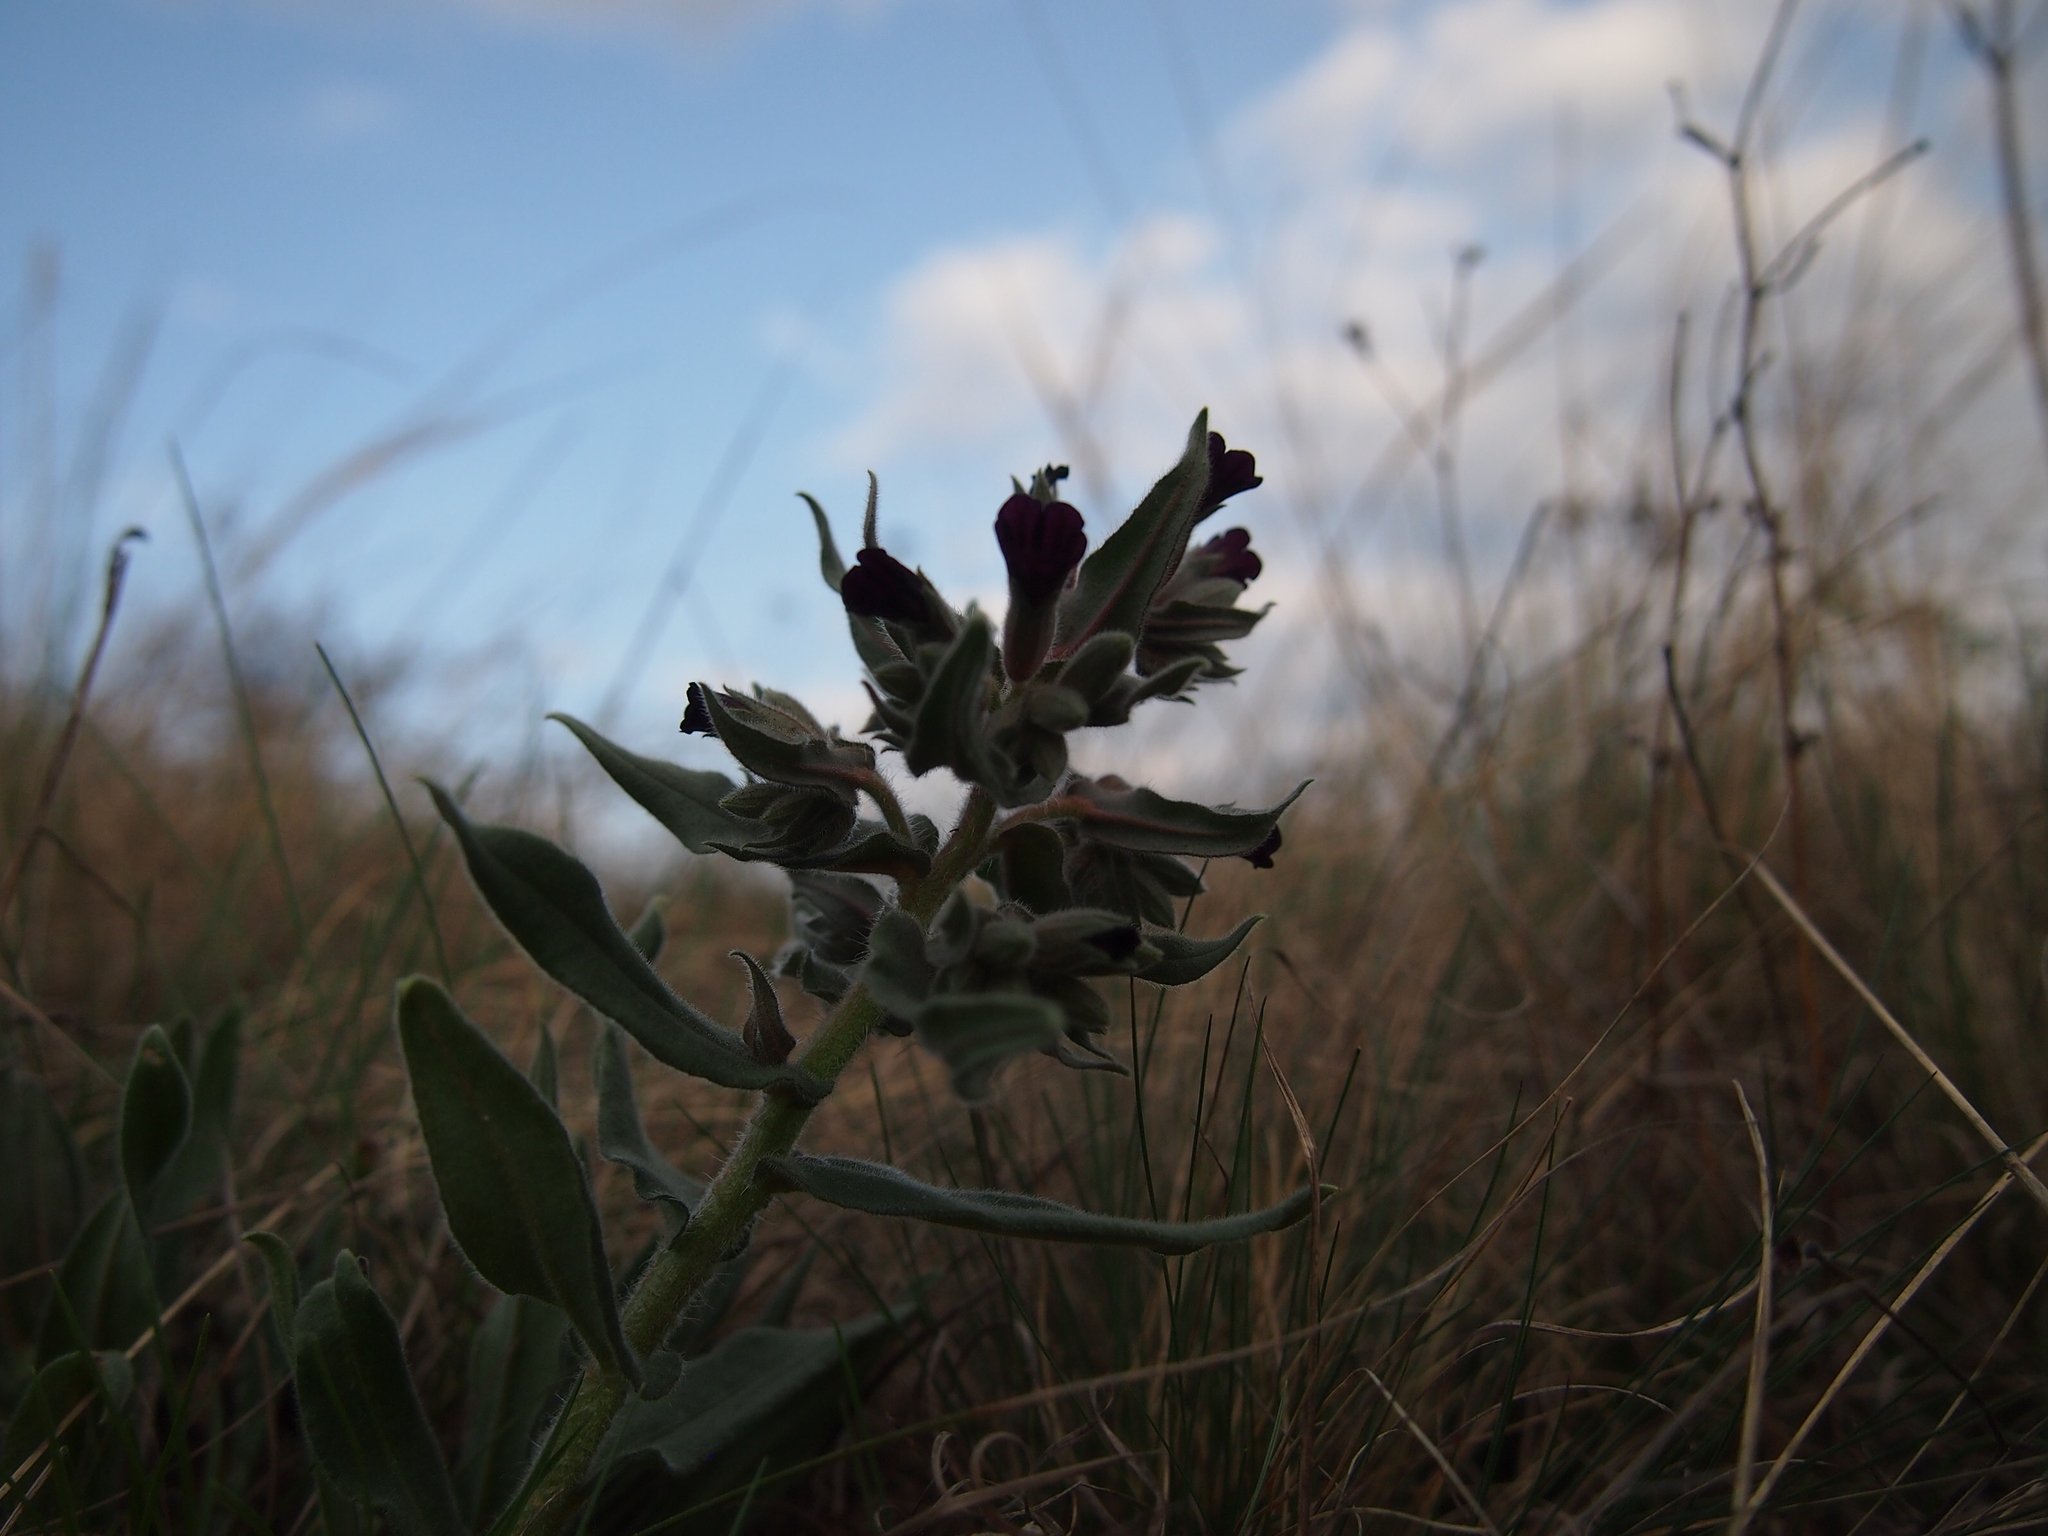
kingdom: Plantae
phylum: Tracheophyta
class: Magnoliopsida
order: Boraginales
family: Boraginaceae
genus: Nonea
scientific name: Nonea pulla
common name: Brown nonea
